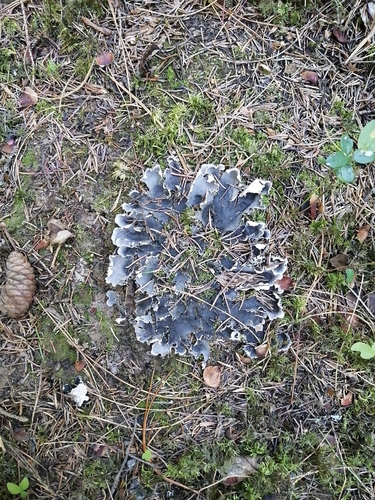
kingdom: Fungi
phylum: Ascomycota
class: Lecanoromycetes
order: Peltigerales
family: Peltigeraceae
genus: Peltigera
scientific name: Peltigera praetextata
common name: Scaly dog-lichen
